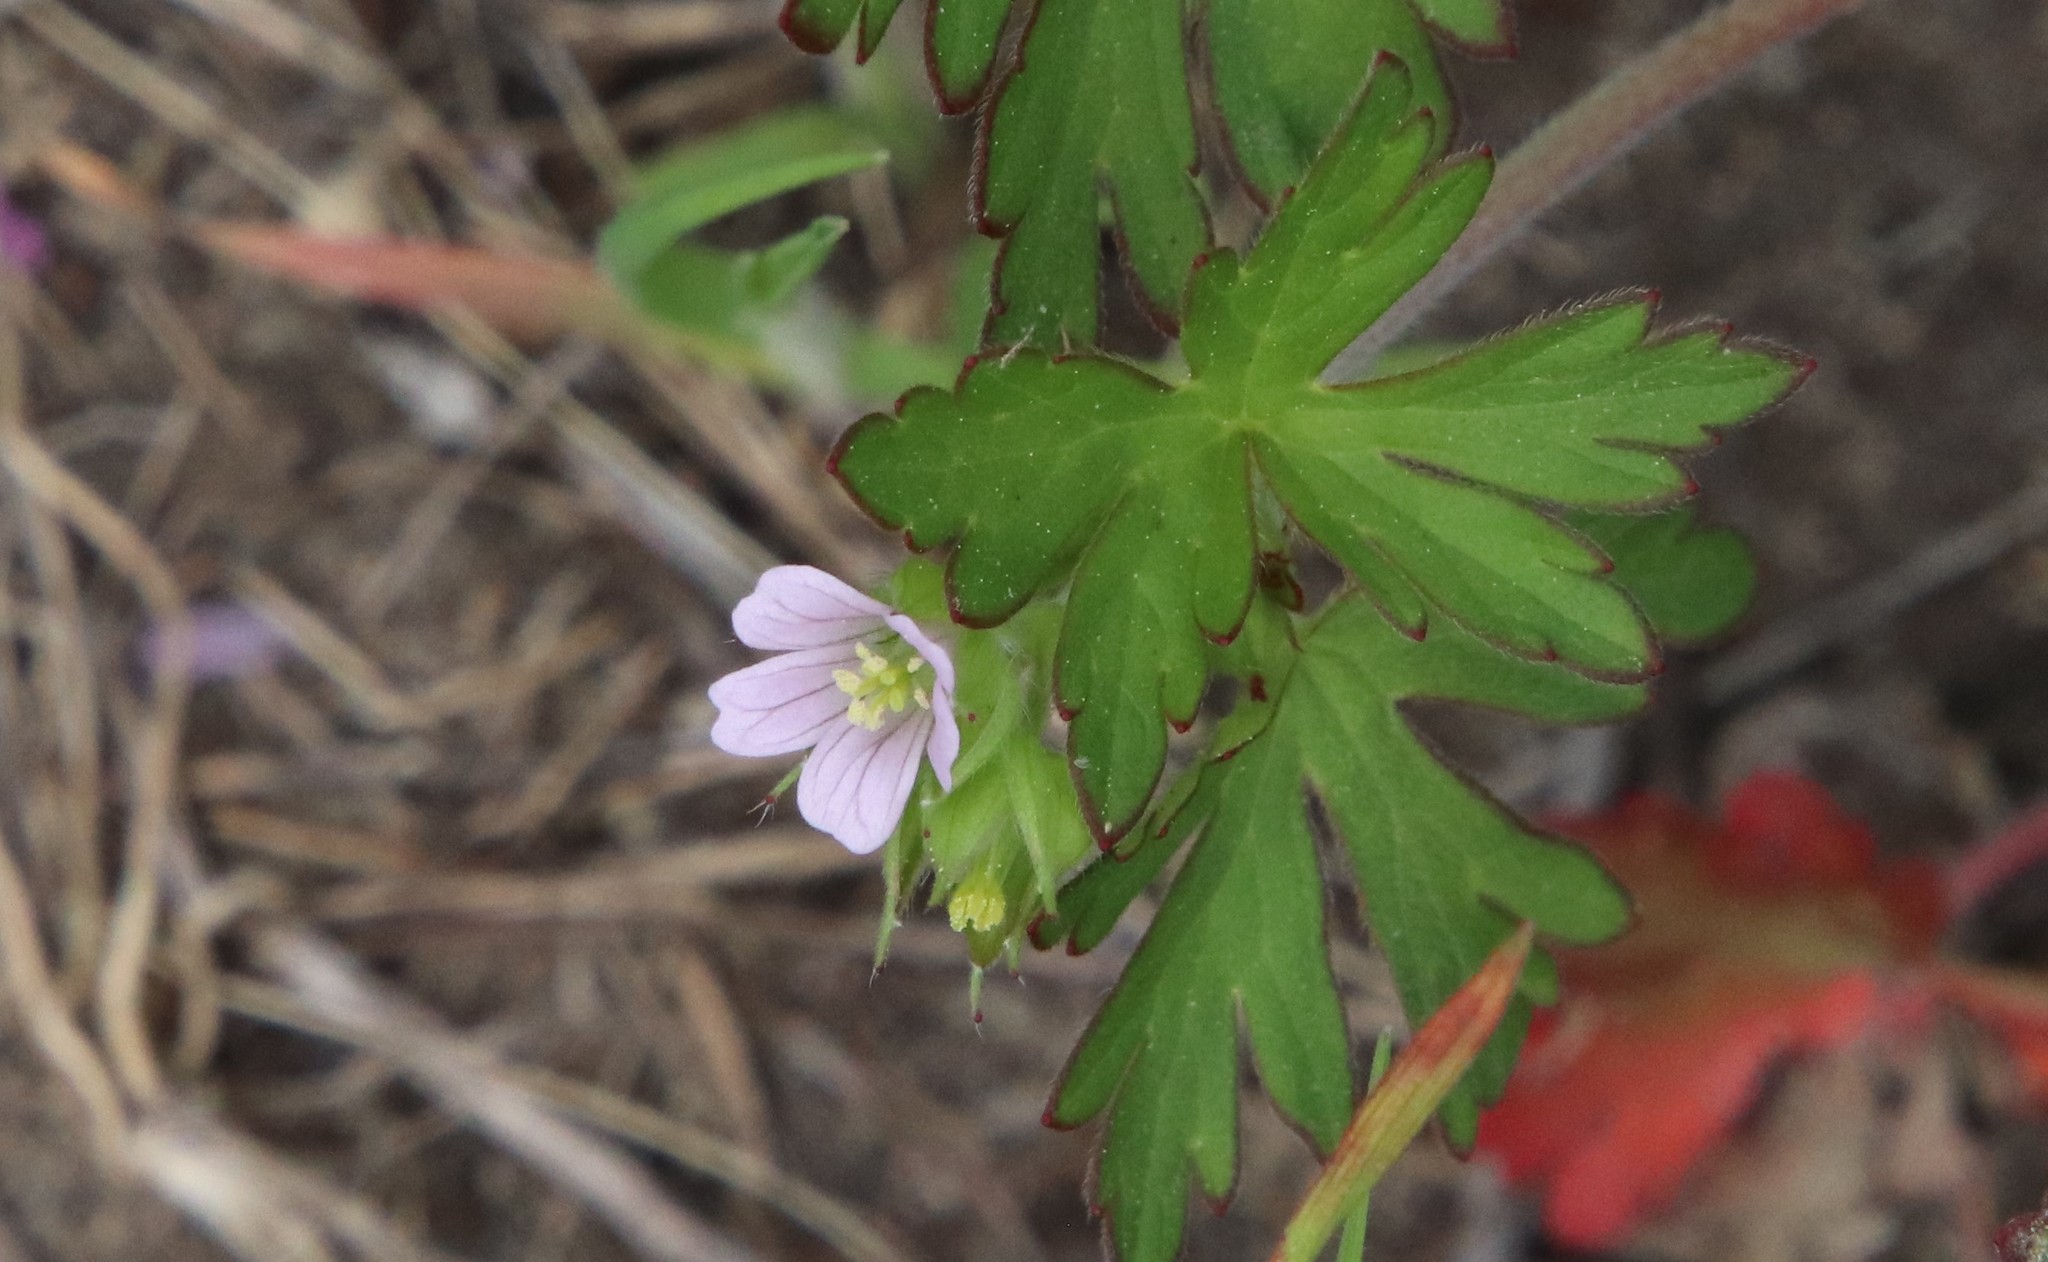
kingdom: Plantae
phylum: Tracheophyta
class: Magnoliopsida
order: Geraniales
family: Geraniaceae
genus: Geranium
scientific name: Geranium carolinianum
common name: Carolina crane's-bill
